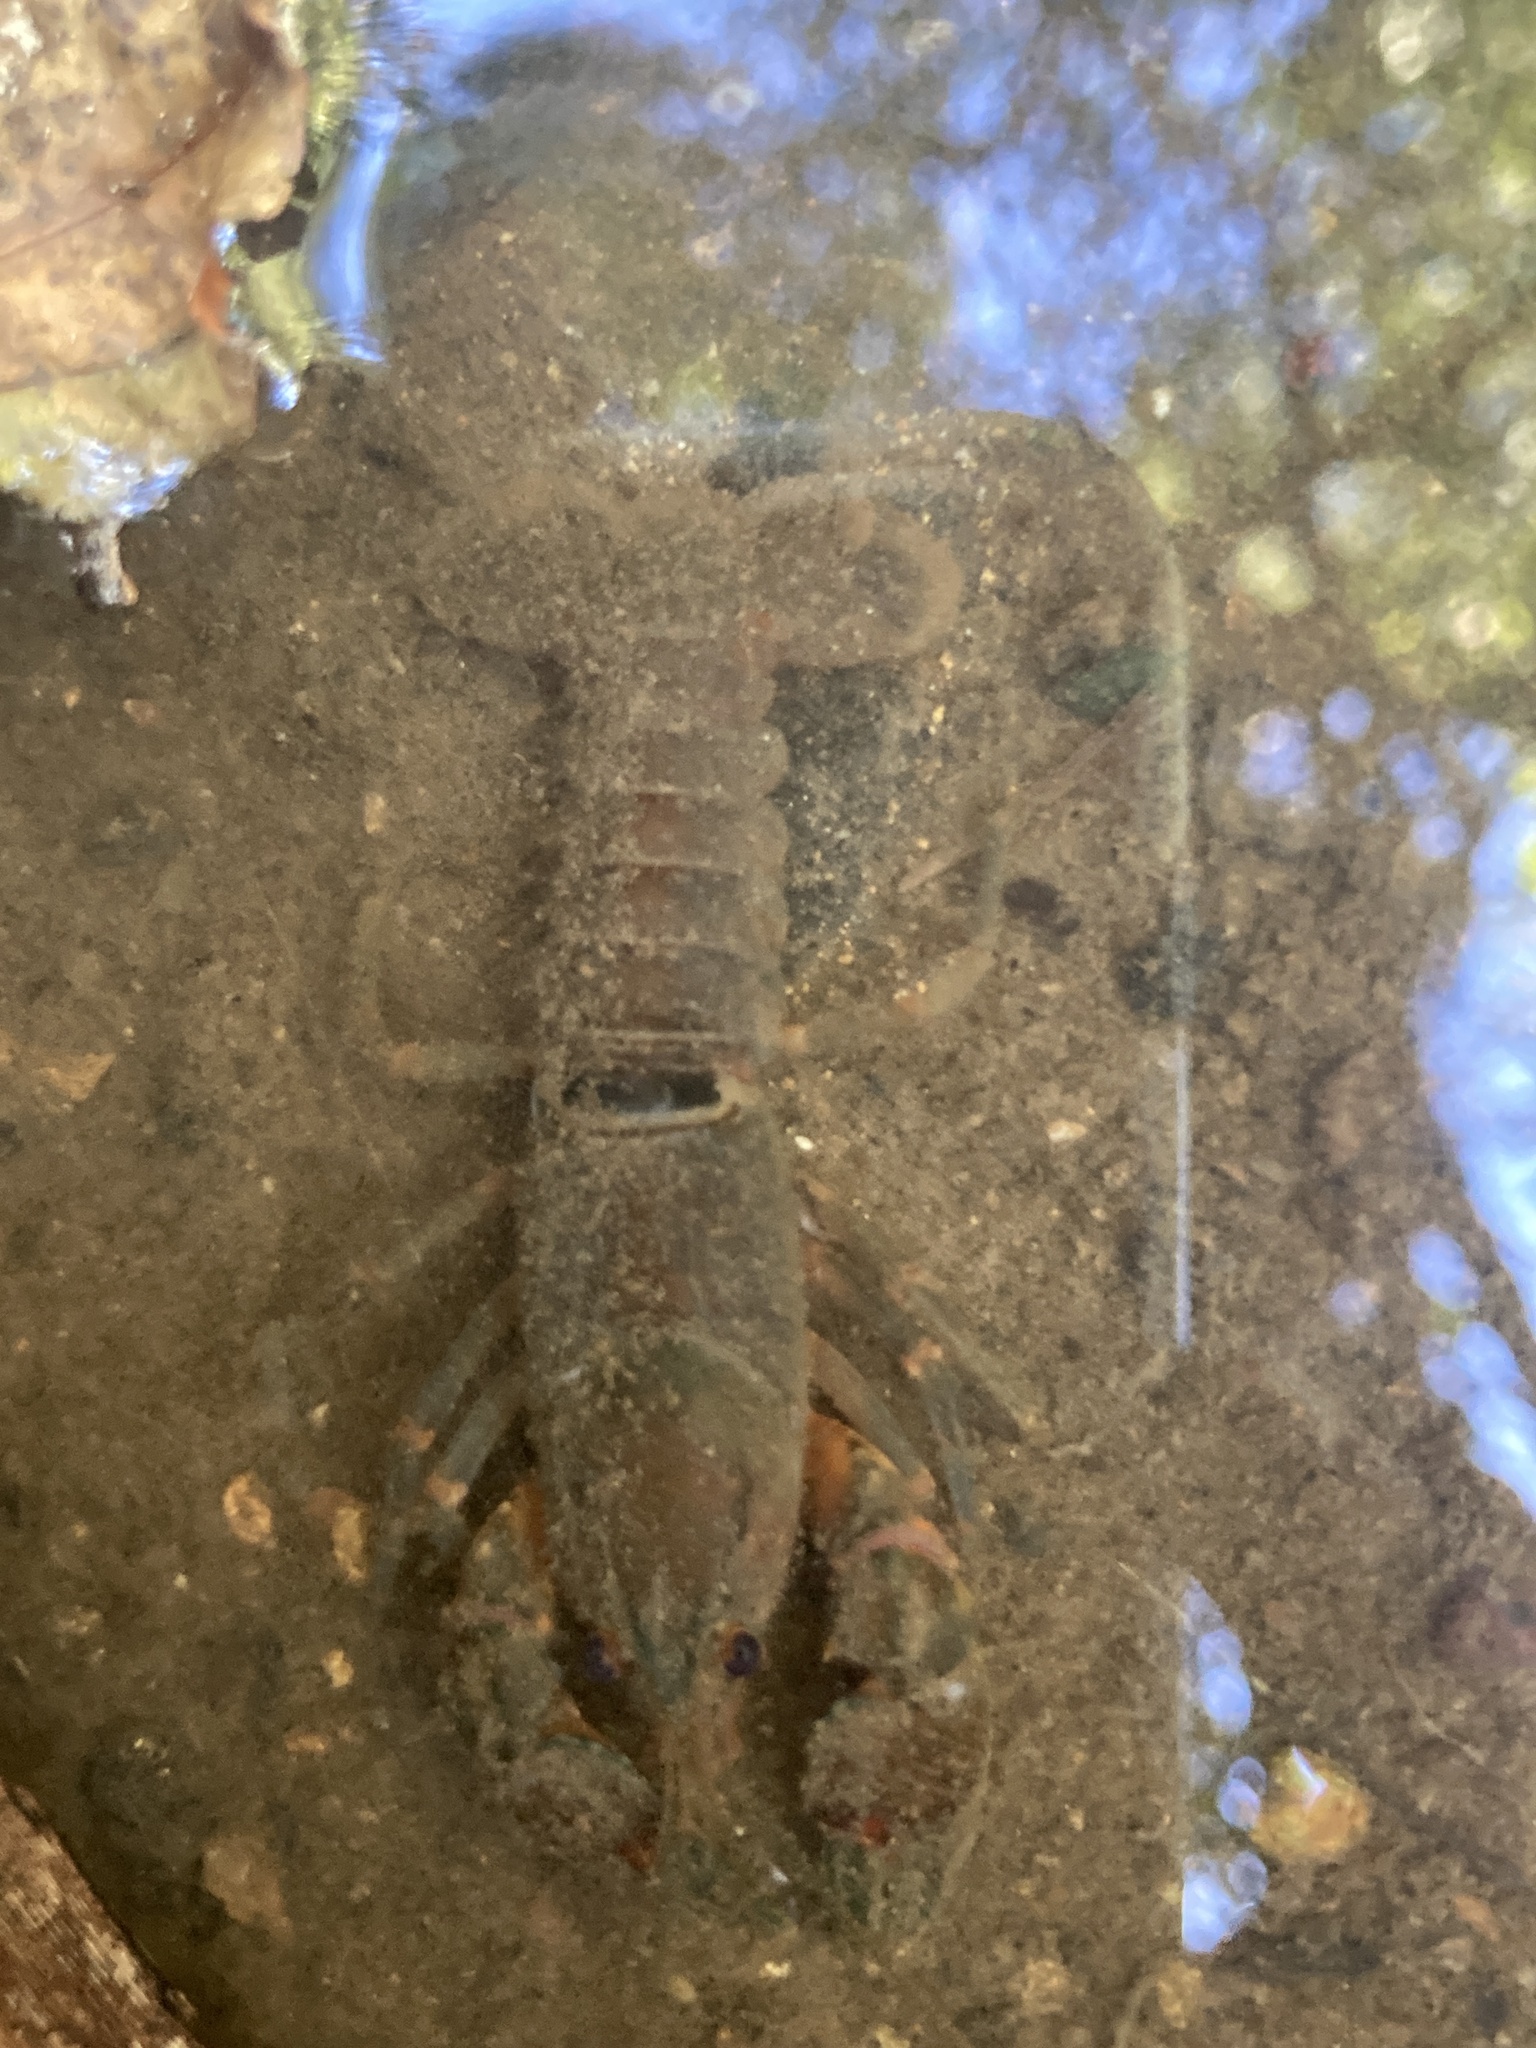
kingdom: Animalia
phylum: Arthropoda
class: Malacostraca
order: Decapoda
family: Parastacidae
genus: Euastacus
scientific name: Euastacus hirsutus
